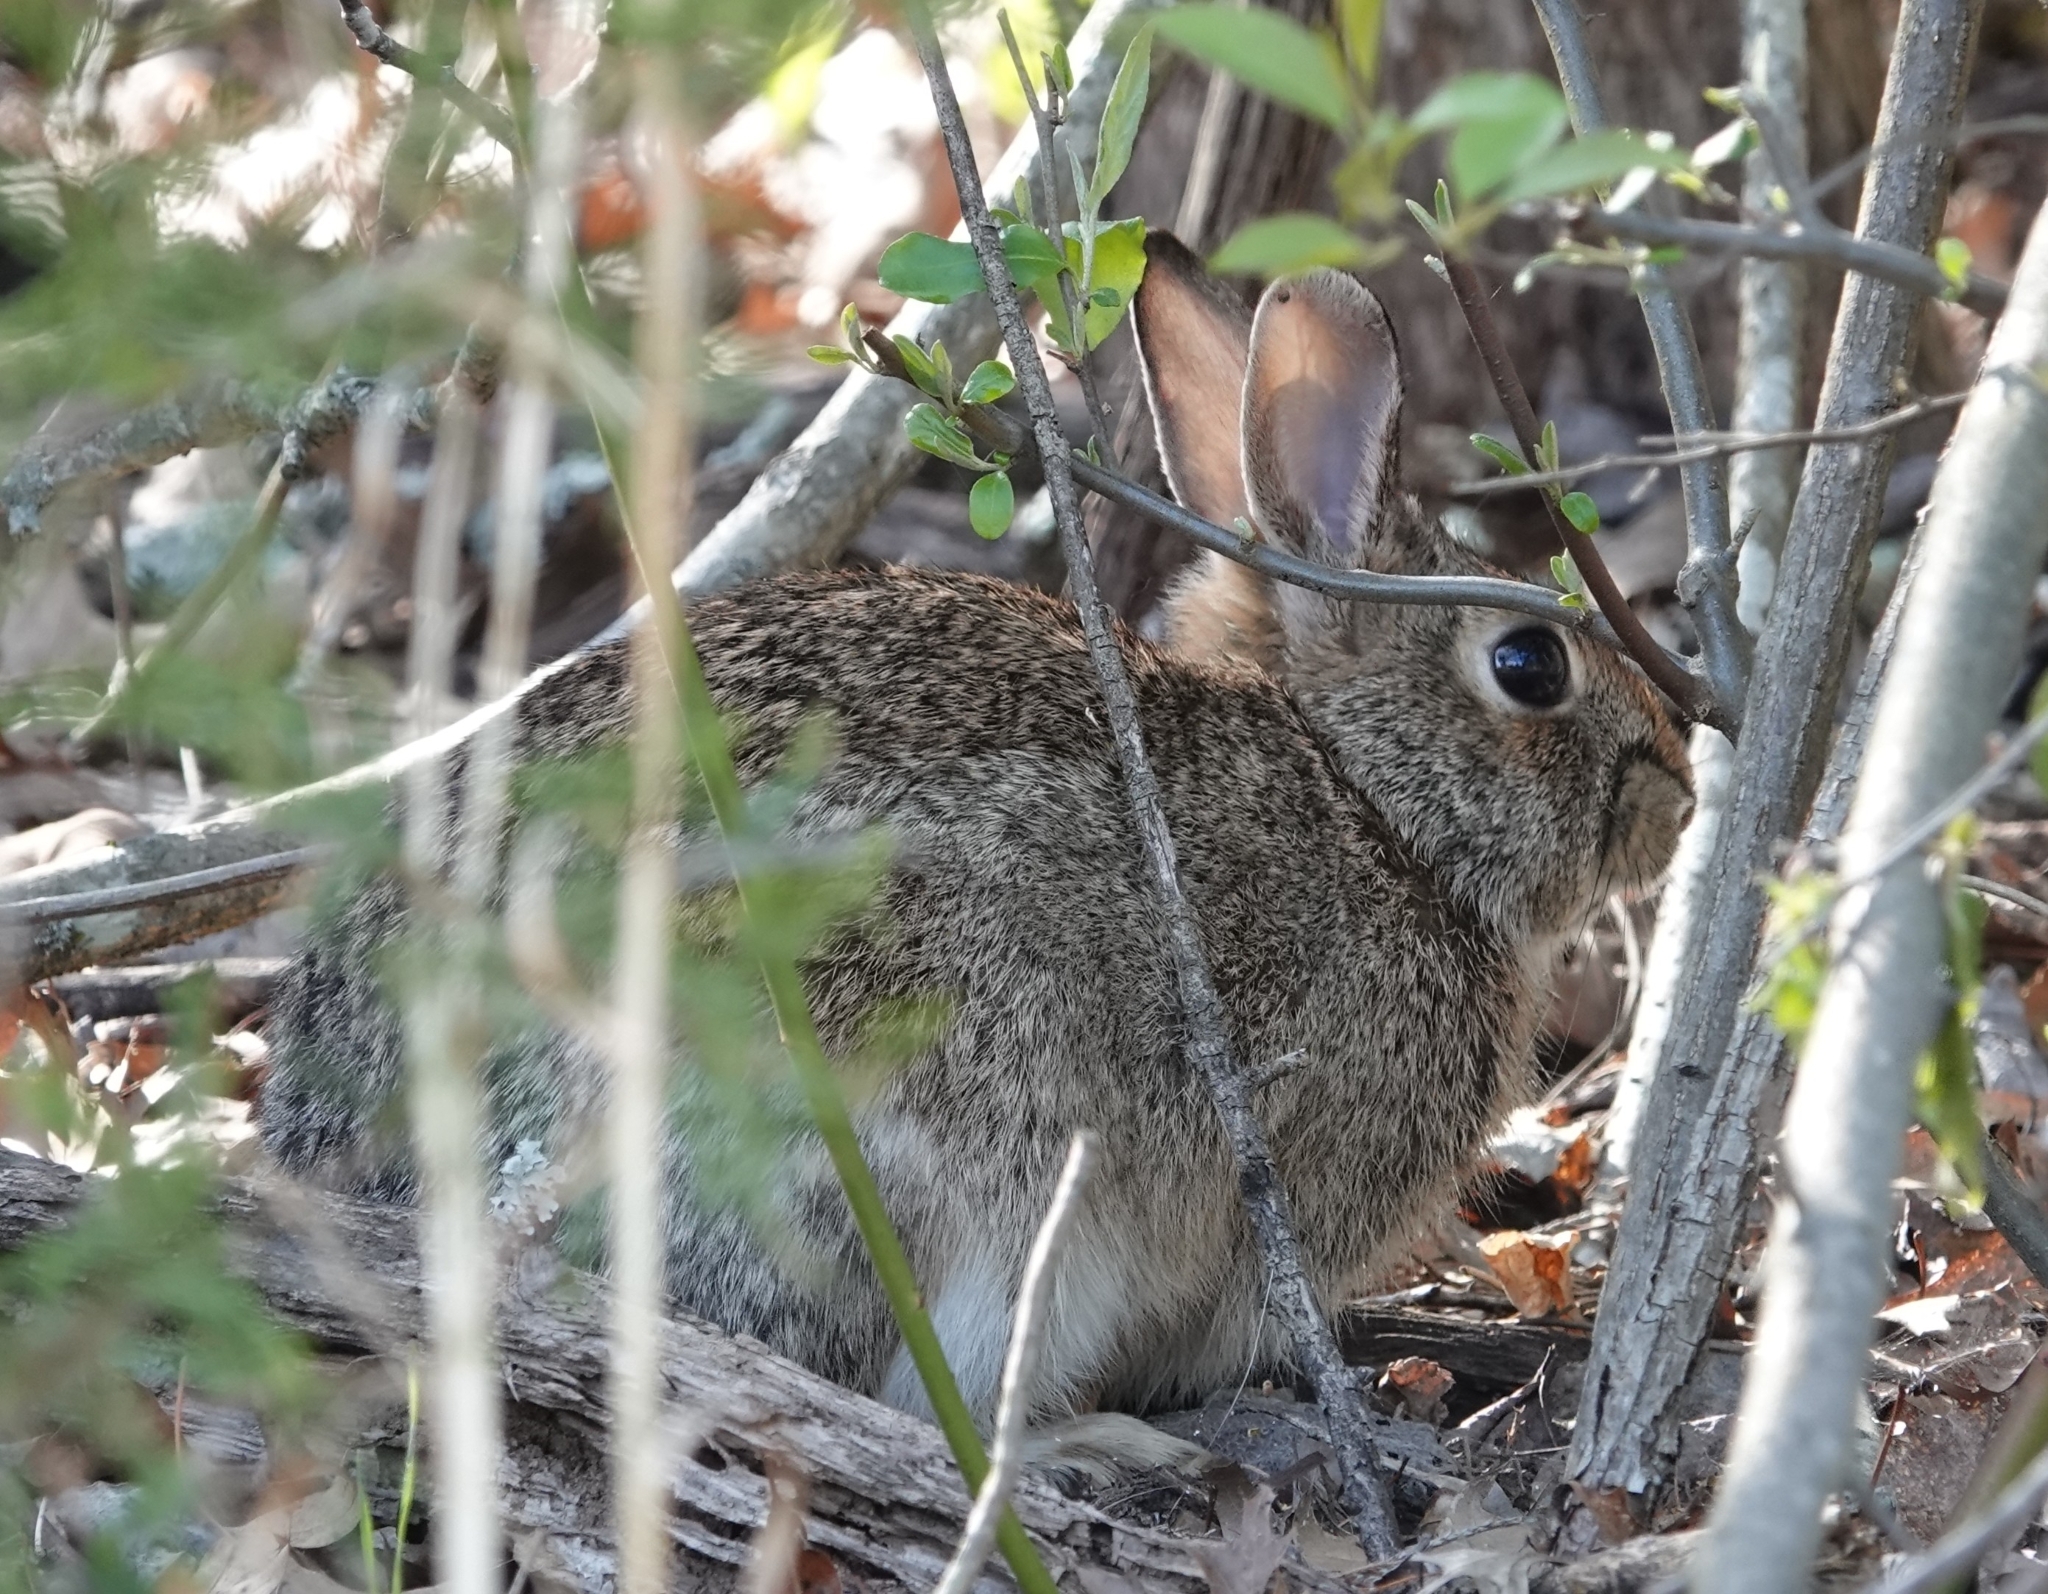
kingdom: Animalia
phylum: Chordata
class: Mammalia
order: Lagomorpha
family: Leporidae
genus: Sylvilagus
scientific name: Sylvilagus floridanus
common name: Eastern cottontail
